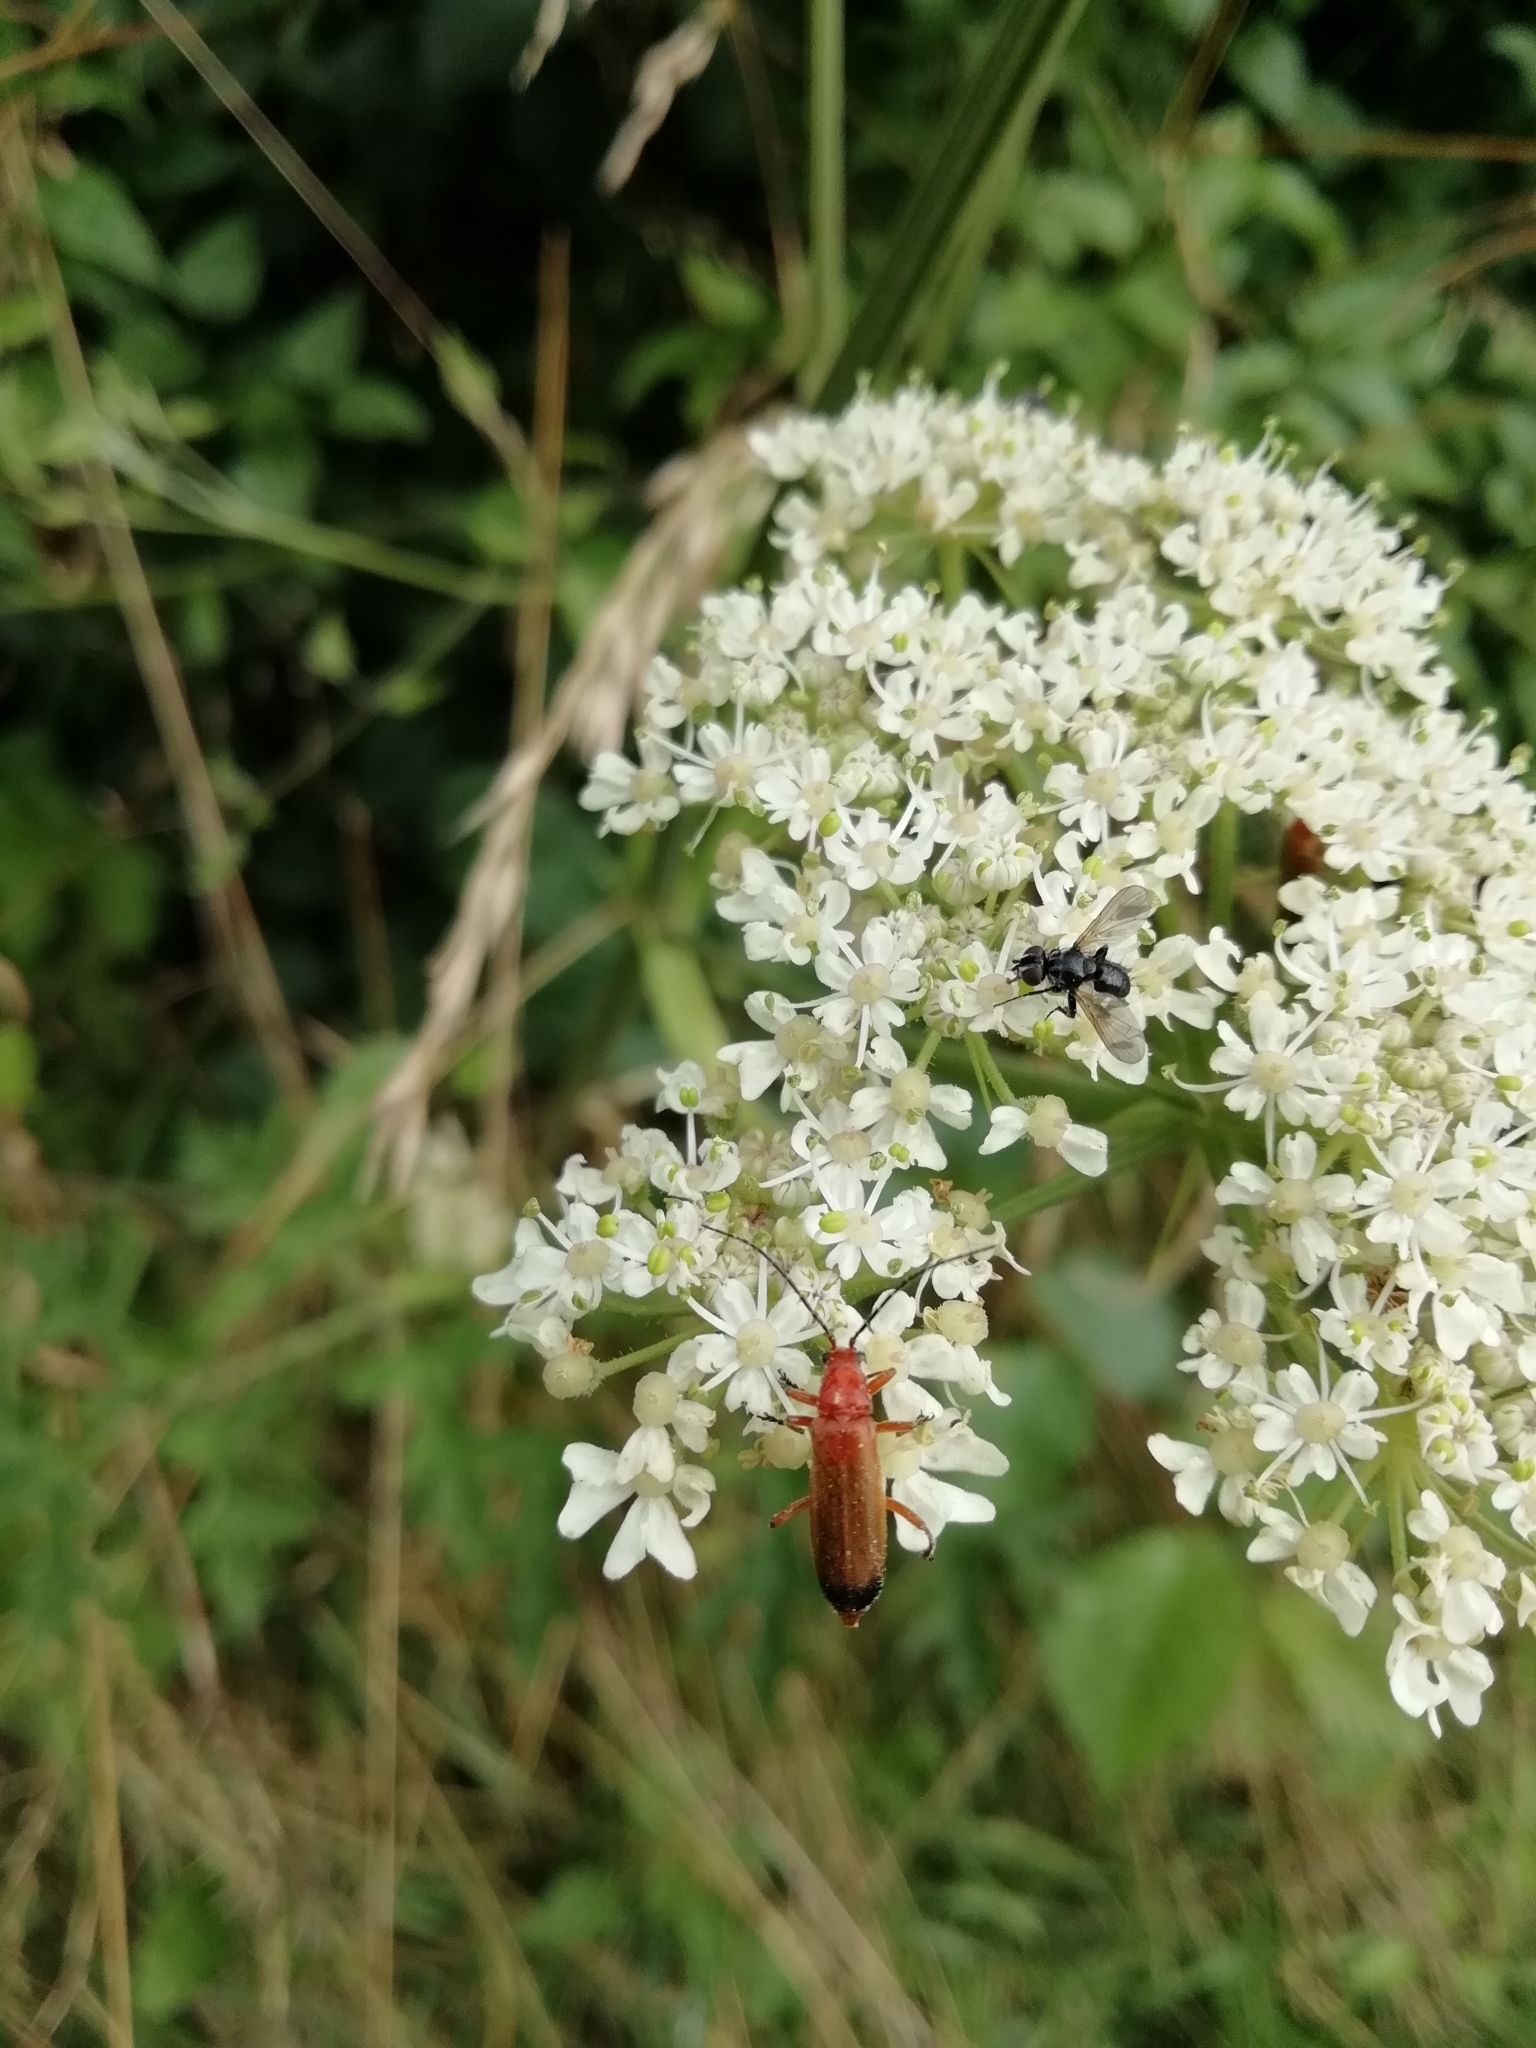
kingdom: Animalia
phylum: Arthropoda
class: Insecta
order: Coleoptera
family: Cantharidae
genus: Rhagonycha
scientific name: Rhagonycha fulva
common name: Common red soldier beetle
